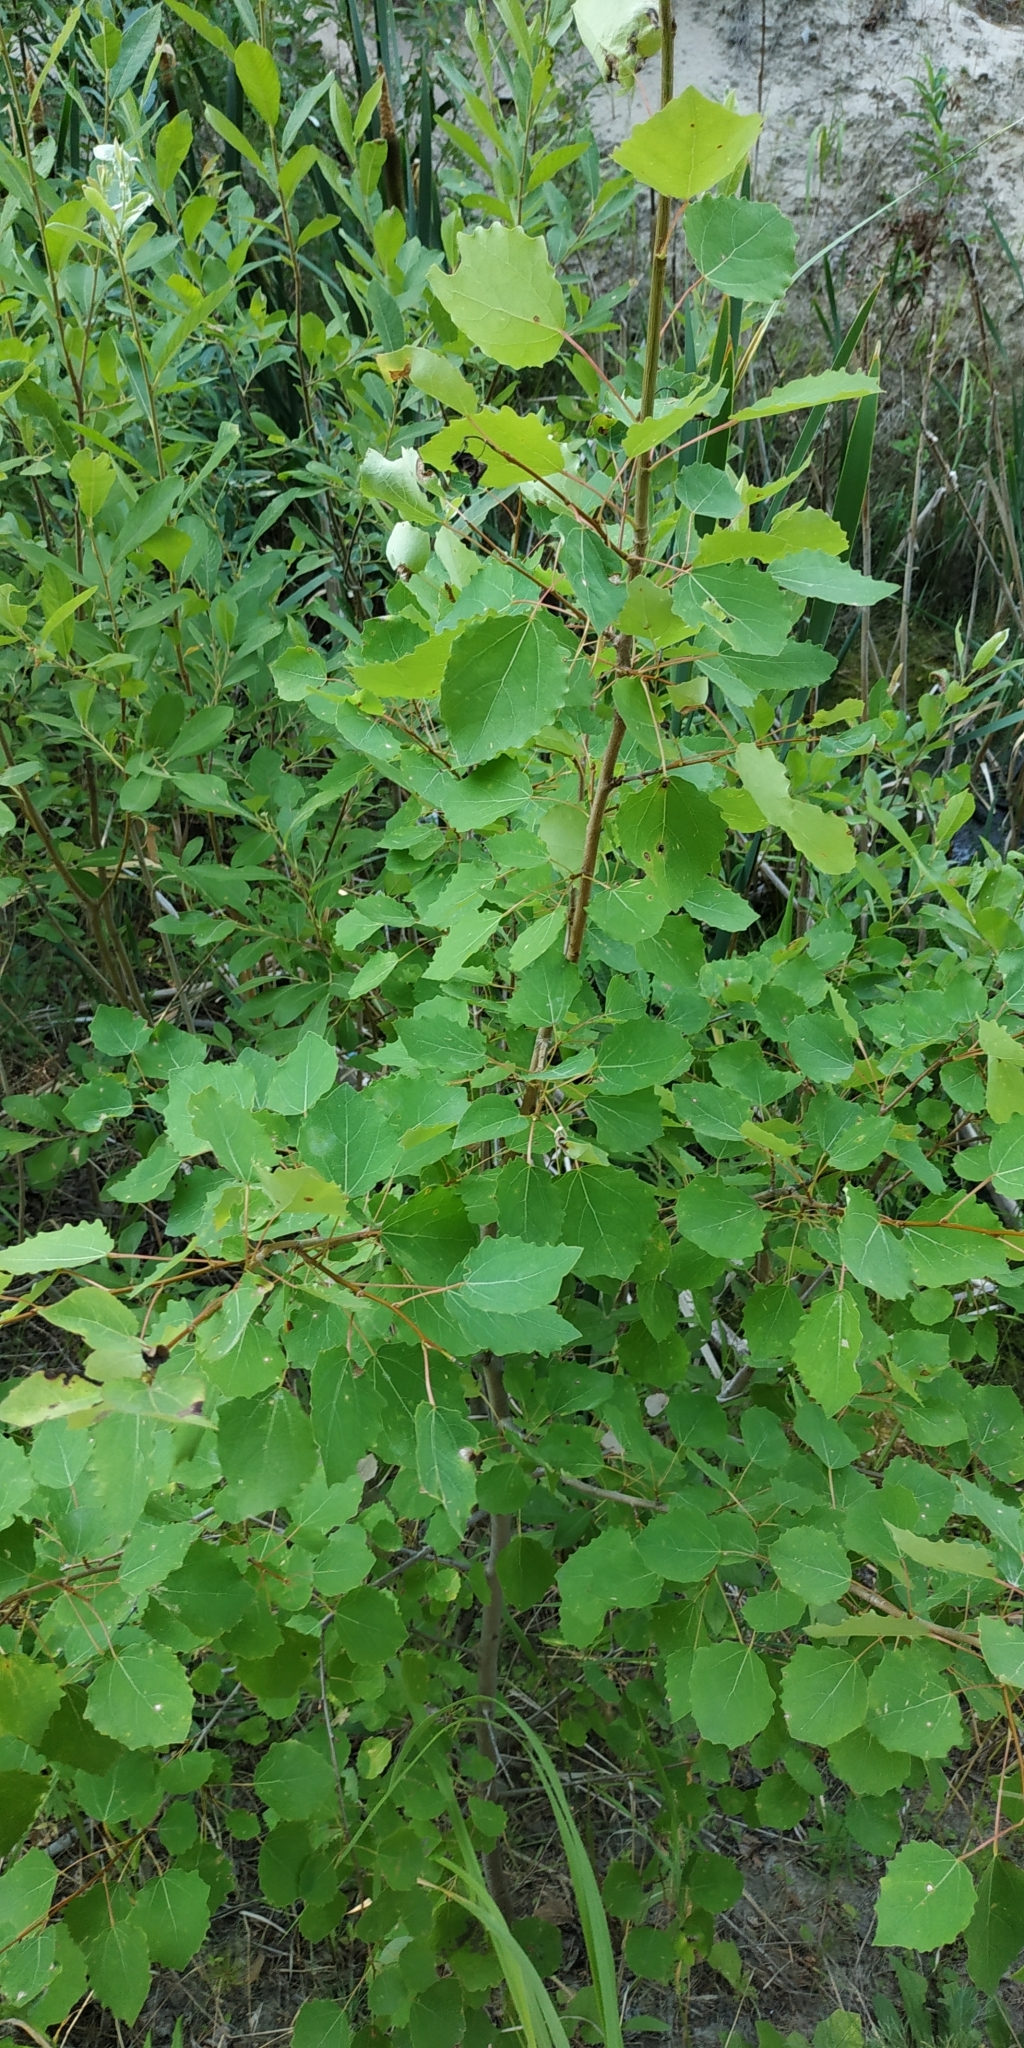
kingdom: Plantae
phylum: Tracheophyta
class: Magnoliopsida
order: Malpighiales
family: Salicaceae
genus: Populus
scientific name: Populus tremula
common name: European aspen
